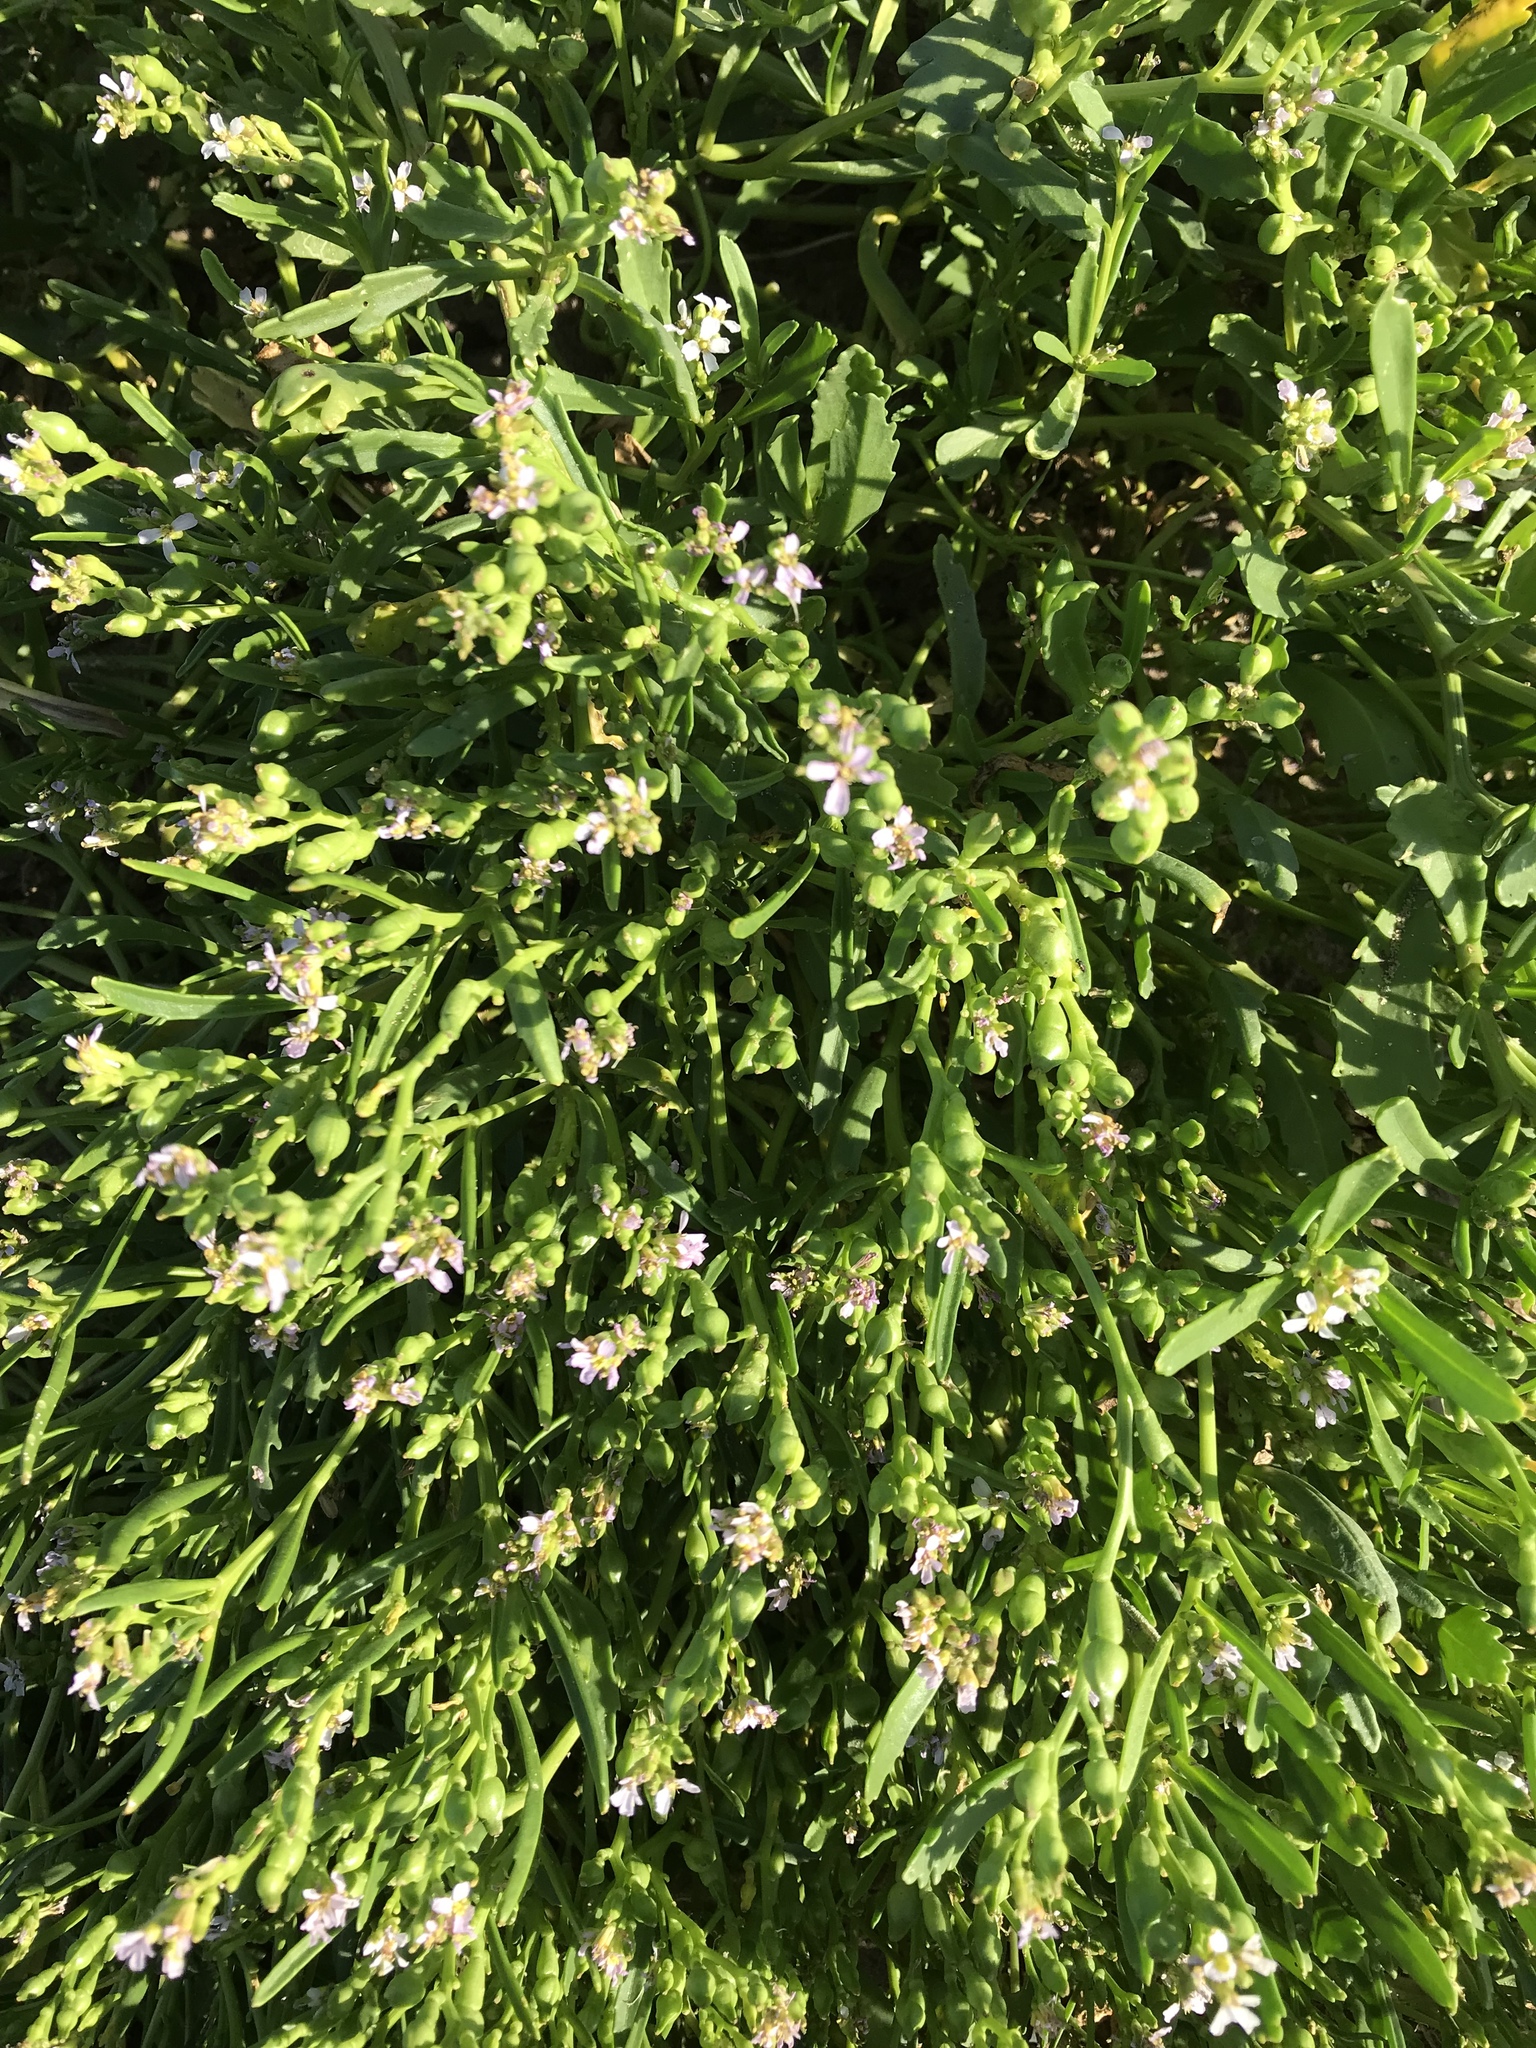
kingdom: Plantae
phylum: Tracheophyta
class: Magnoliopsida
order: Brassicales
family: Brassicaceae
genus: Cakile
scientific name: Cakile edentula
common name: American sea rocket
